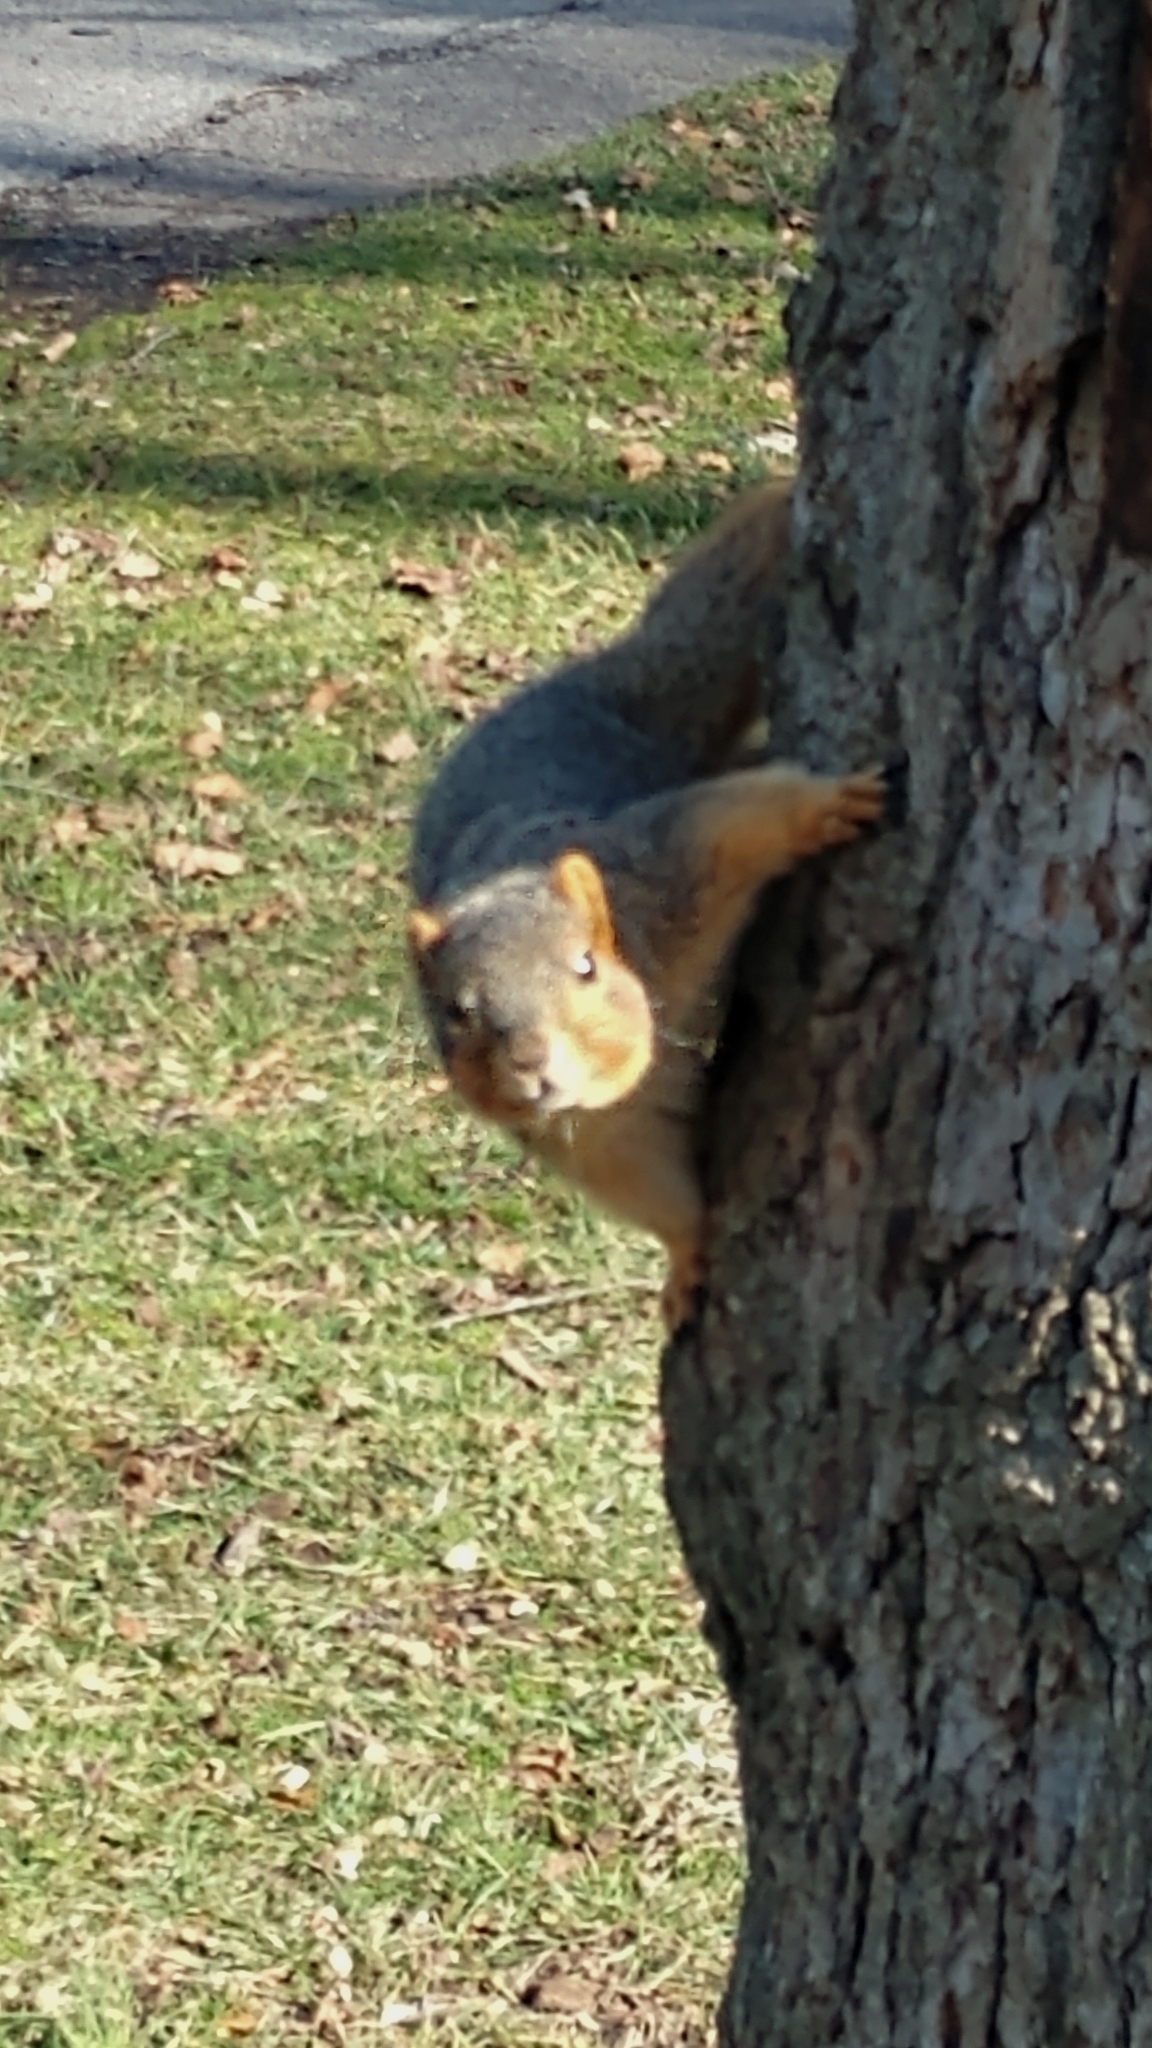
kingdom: Animalia
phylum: Chordata
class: Mammalia
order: Rodentia
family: Sciuridae
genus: Sciurus
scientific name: Sciurus niger
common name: Fox squirrel
